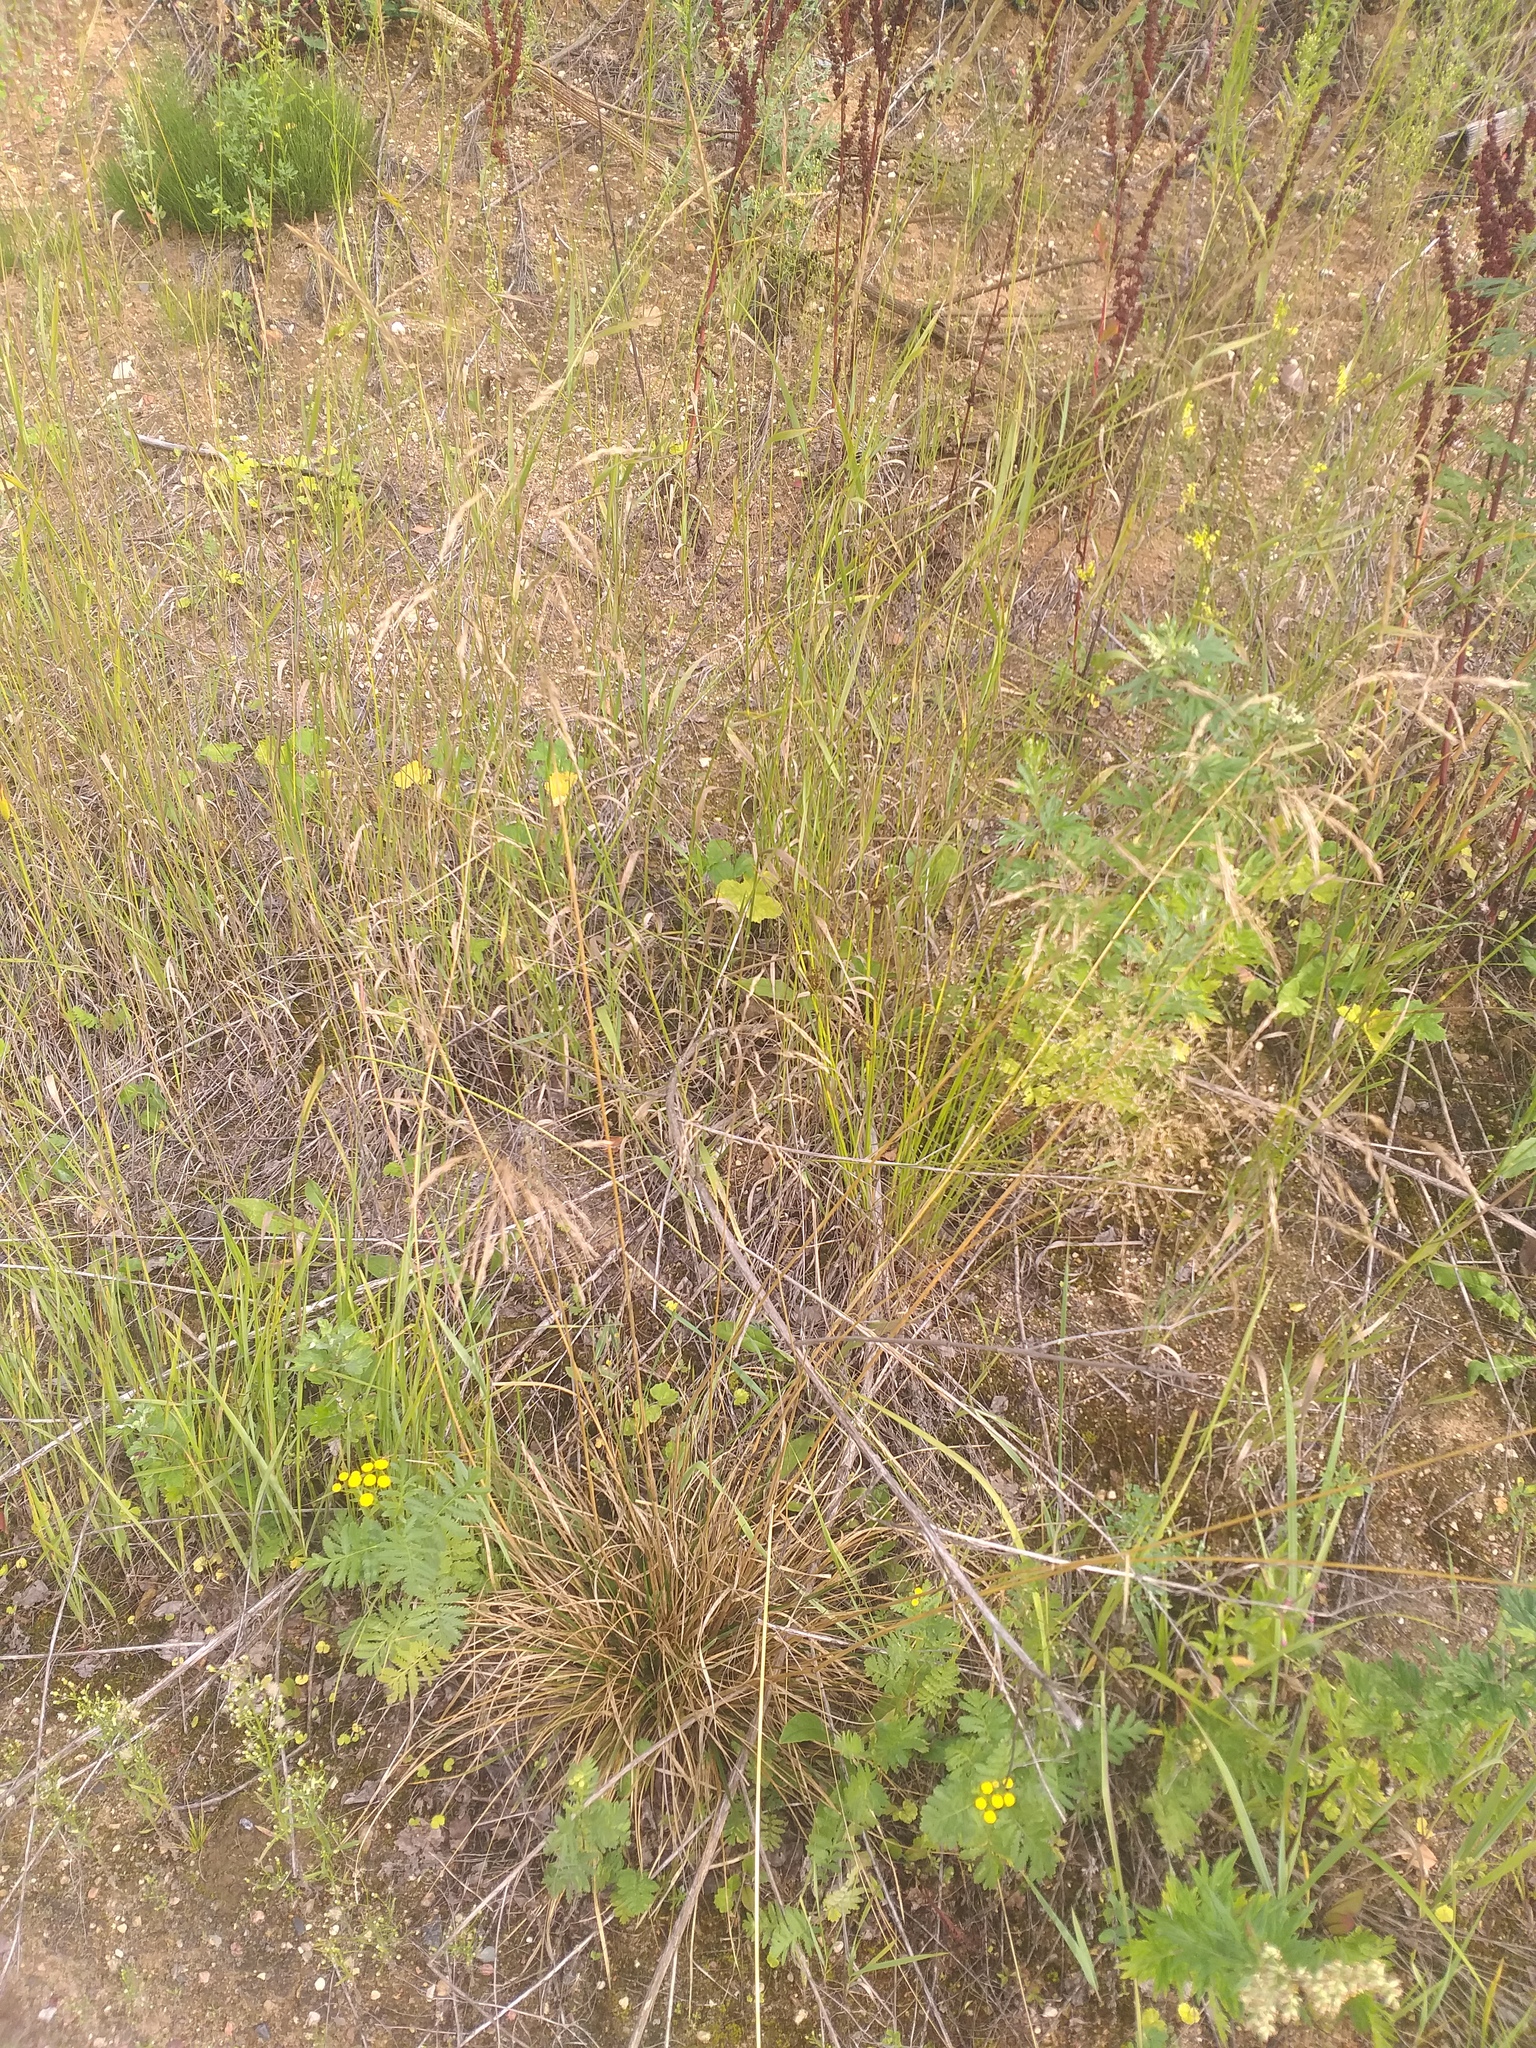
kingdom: Plantae
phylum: Tracheophyta
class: Liliopsida
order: Poales
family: Poaceae
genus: Deschampsia
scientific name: Deschampsia cespitosa
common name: Tufted hair-grass
